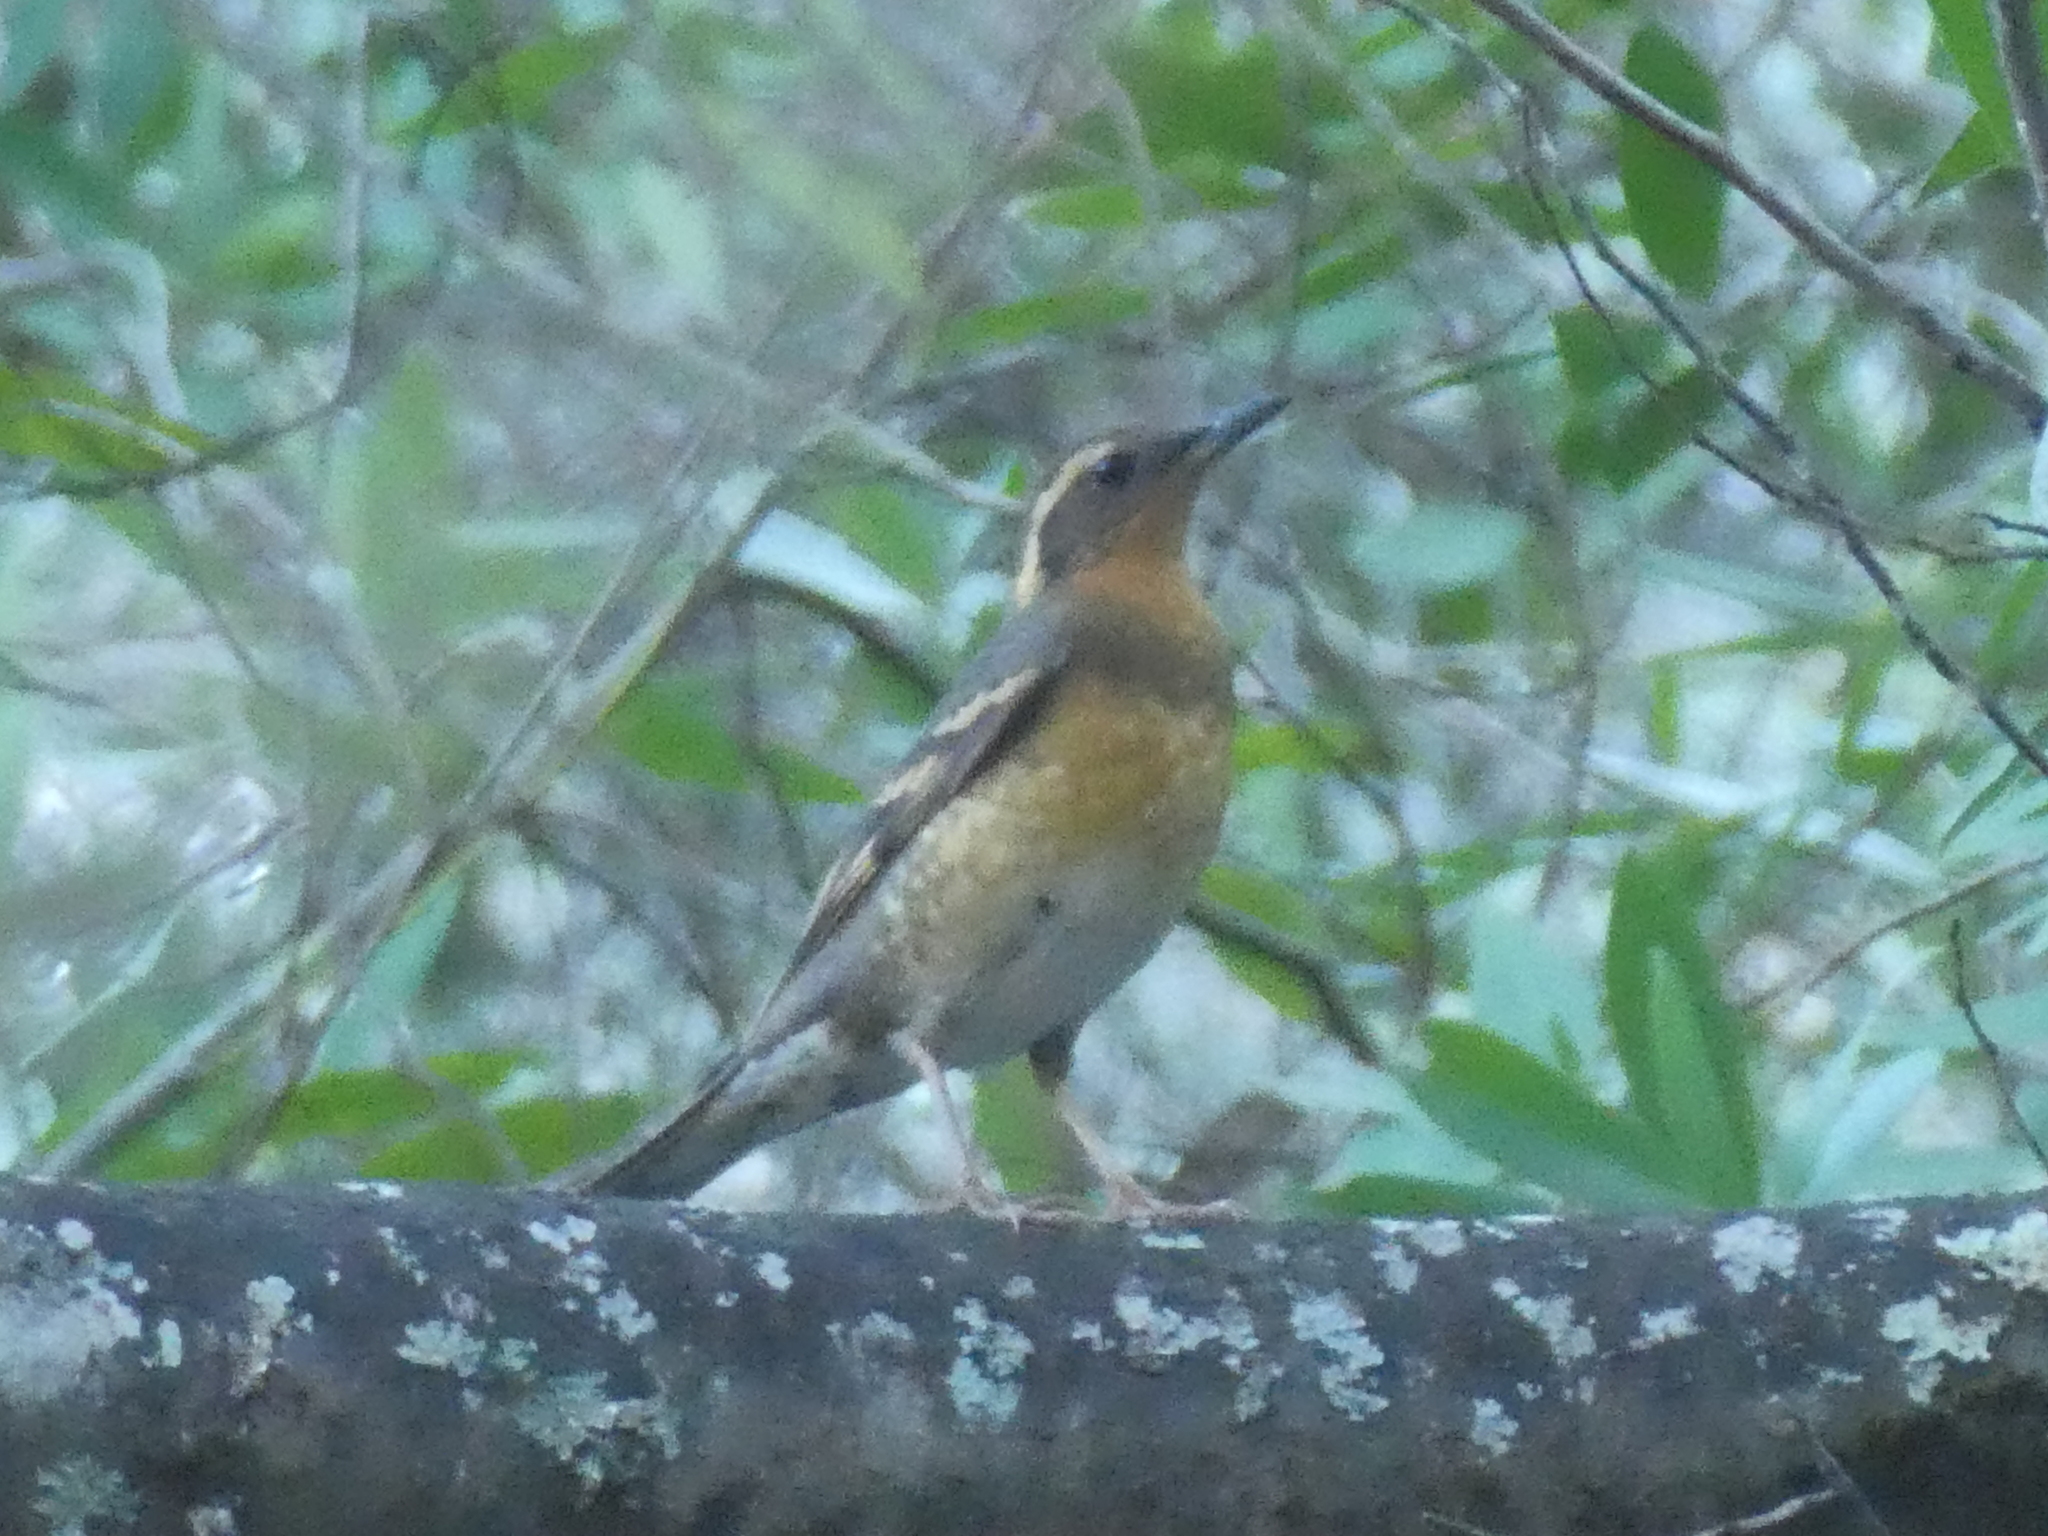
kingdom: Animalia
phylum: Chordata
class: Aves
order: Passeriformes
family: Turdidae
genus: Ixoreus
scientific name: Ixoreus naevius
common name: Varied thrush
